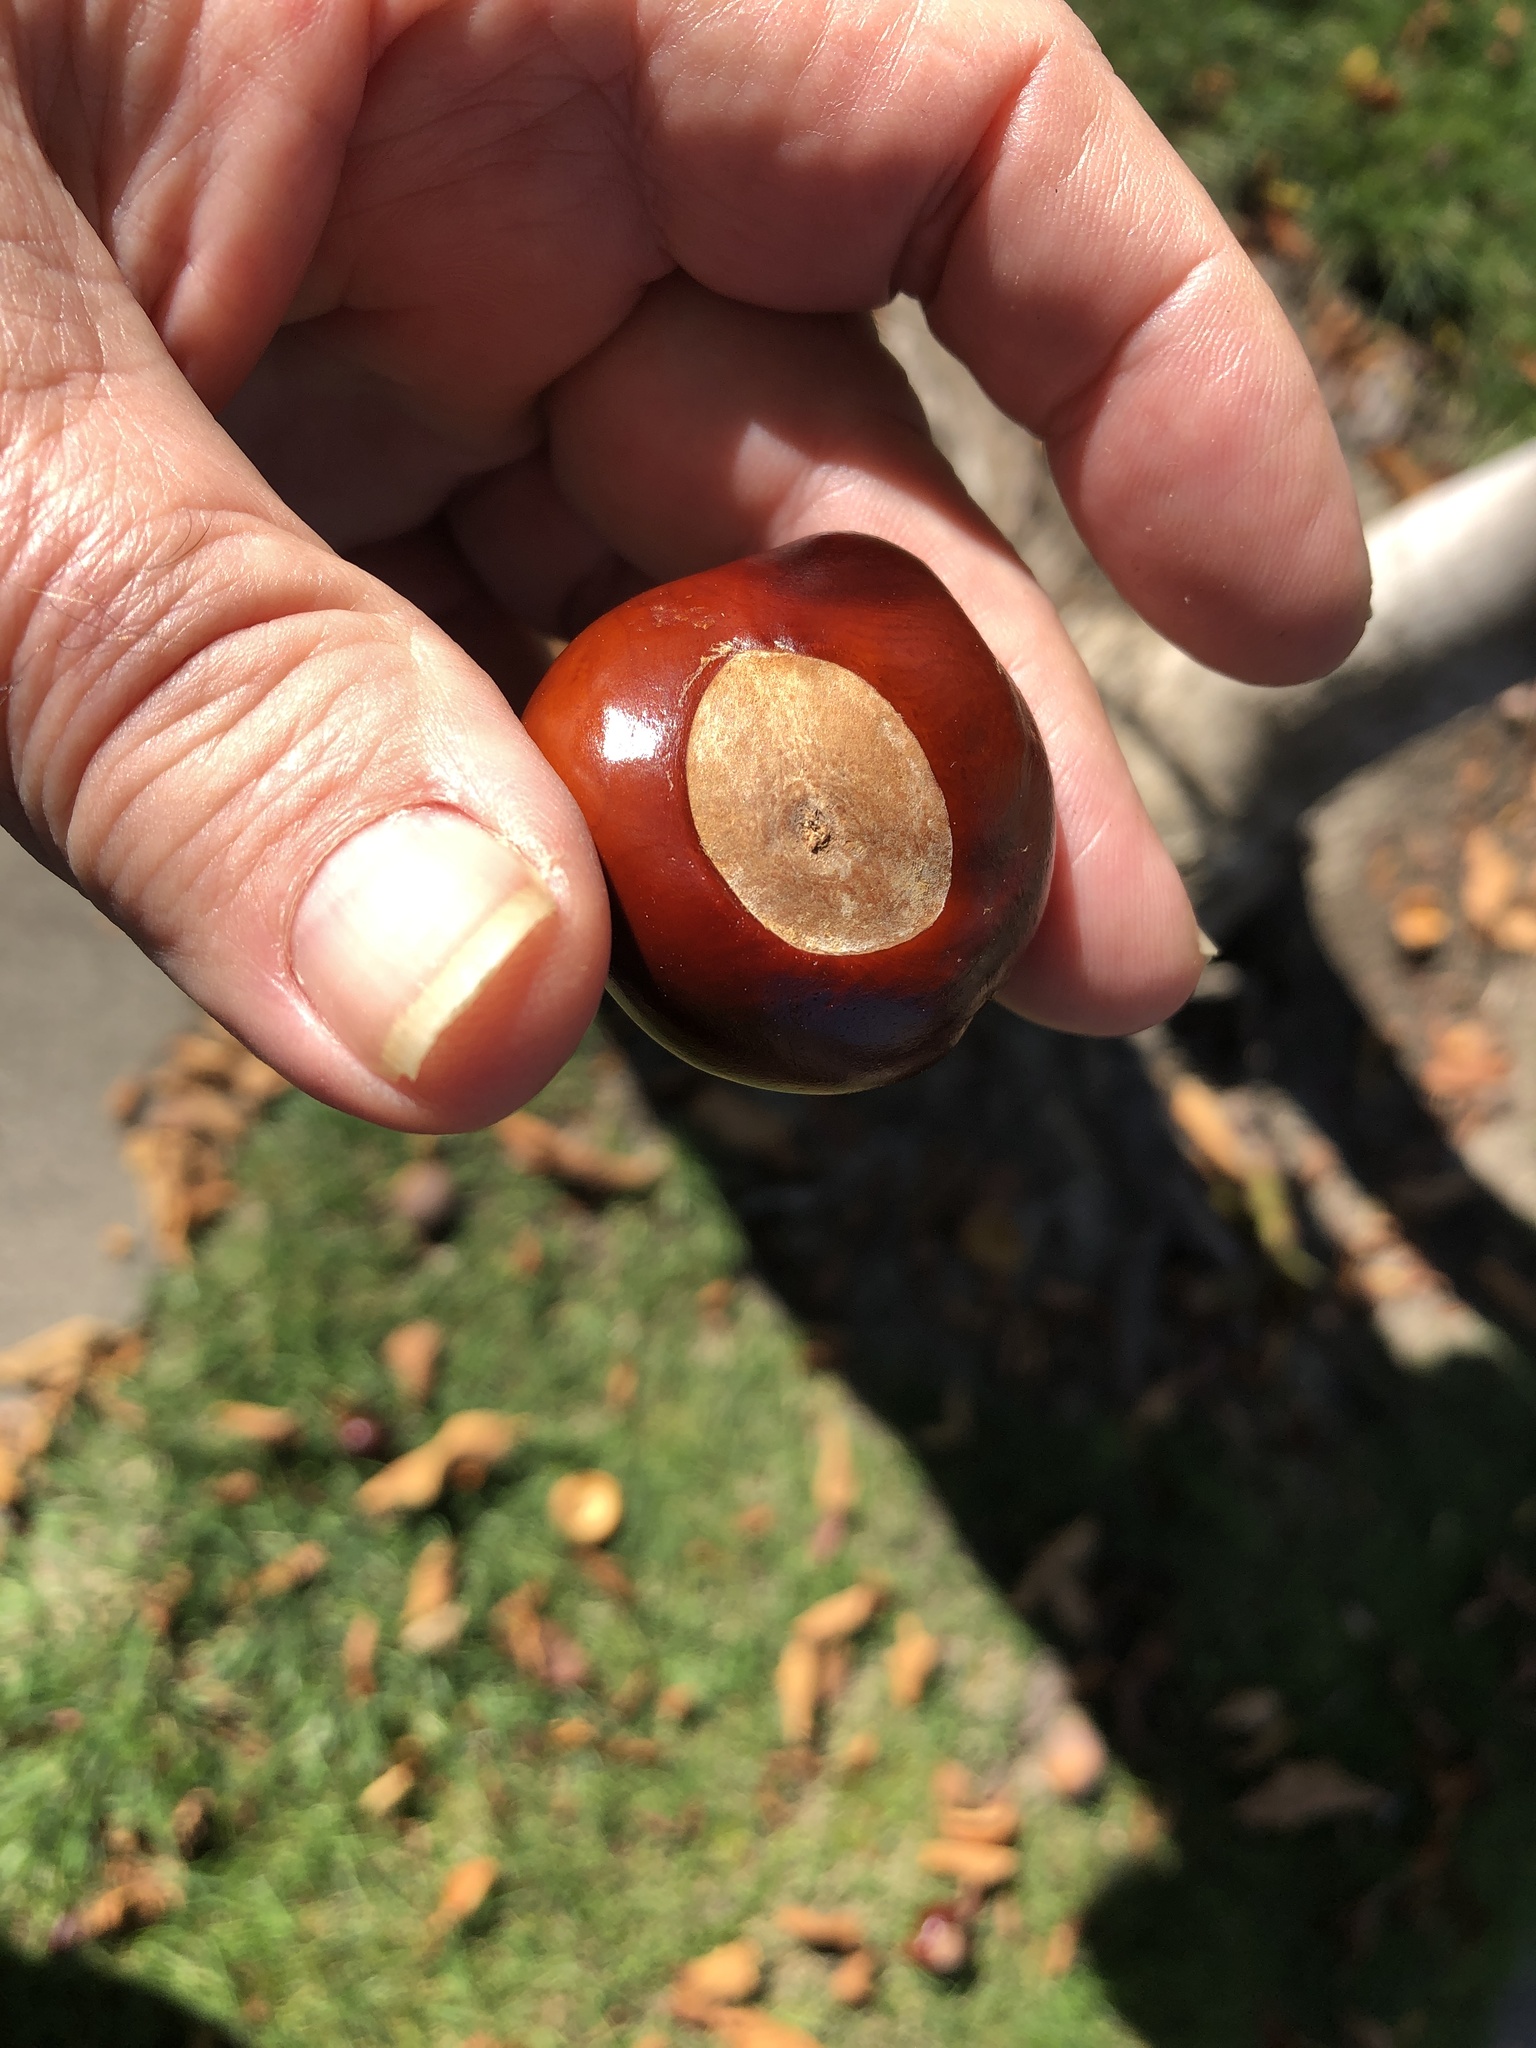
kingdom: Plantae
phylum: Tracheophyta
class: Magnoliopsida
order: Sapindales
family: Sapindaceae
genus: Aesculus
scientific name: Aesculus californica
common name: California buckeye
